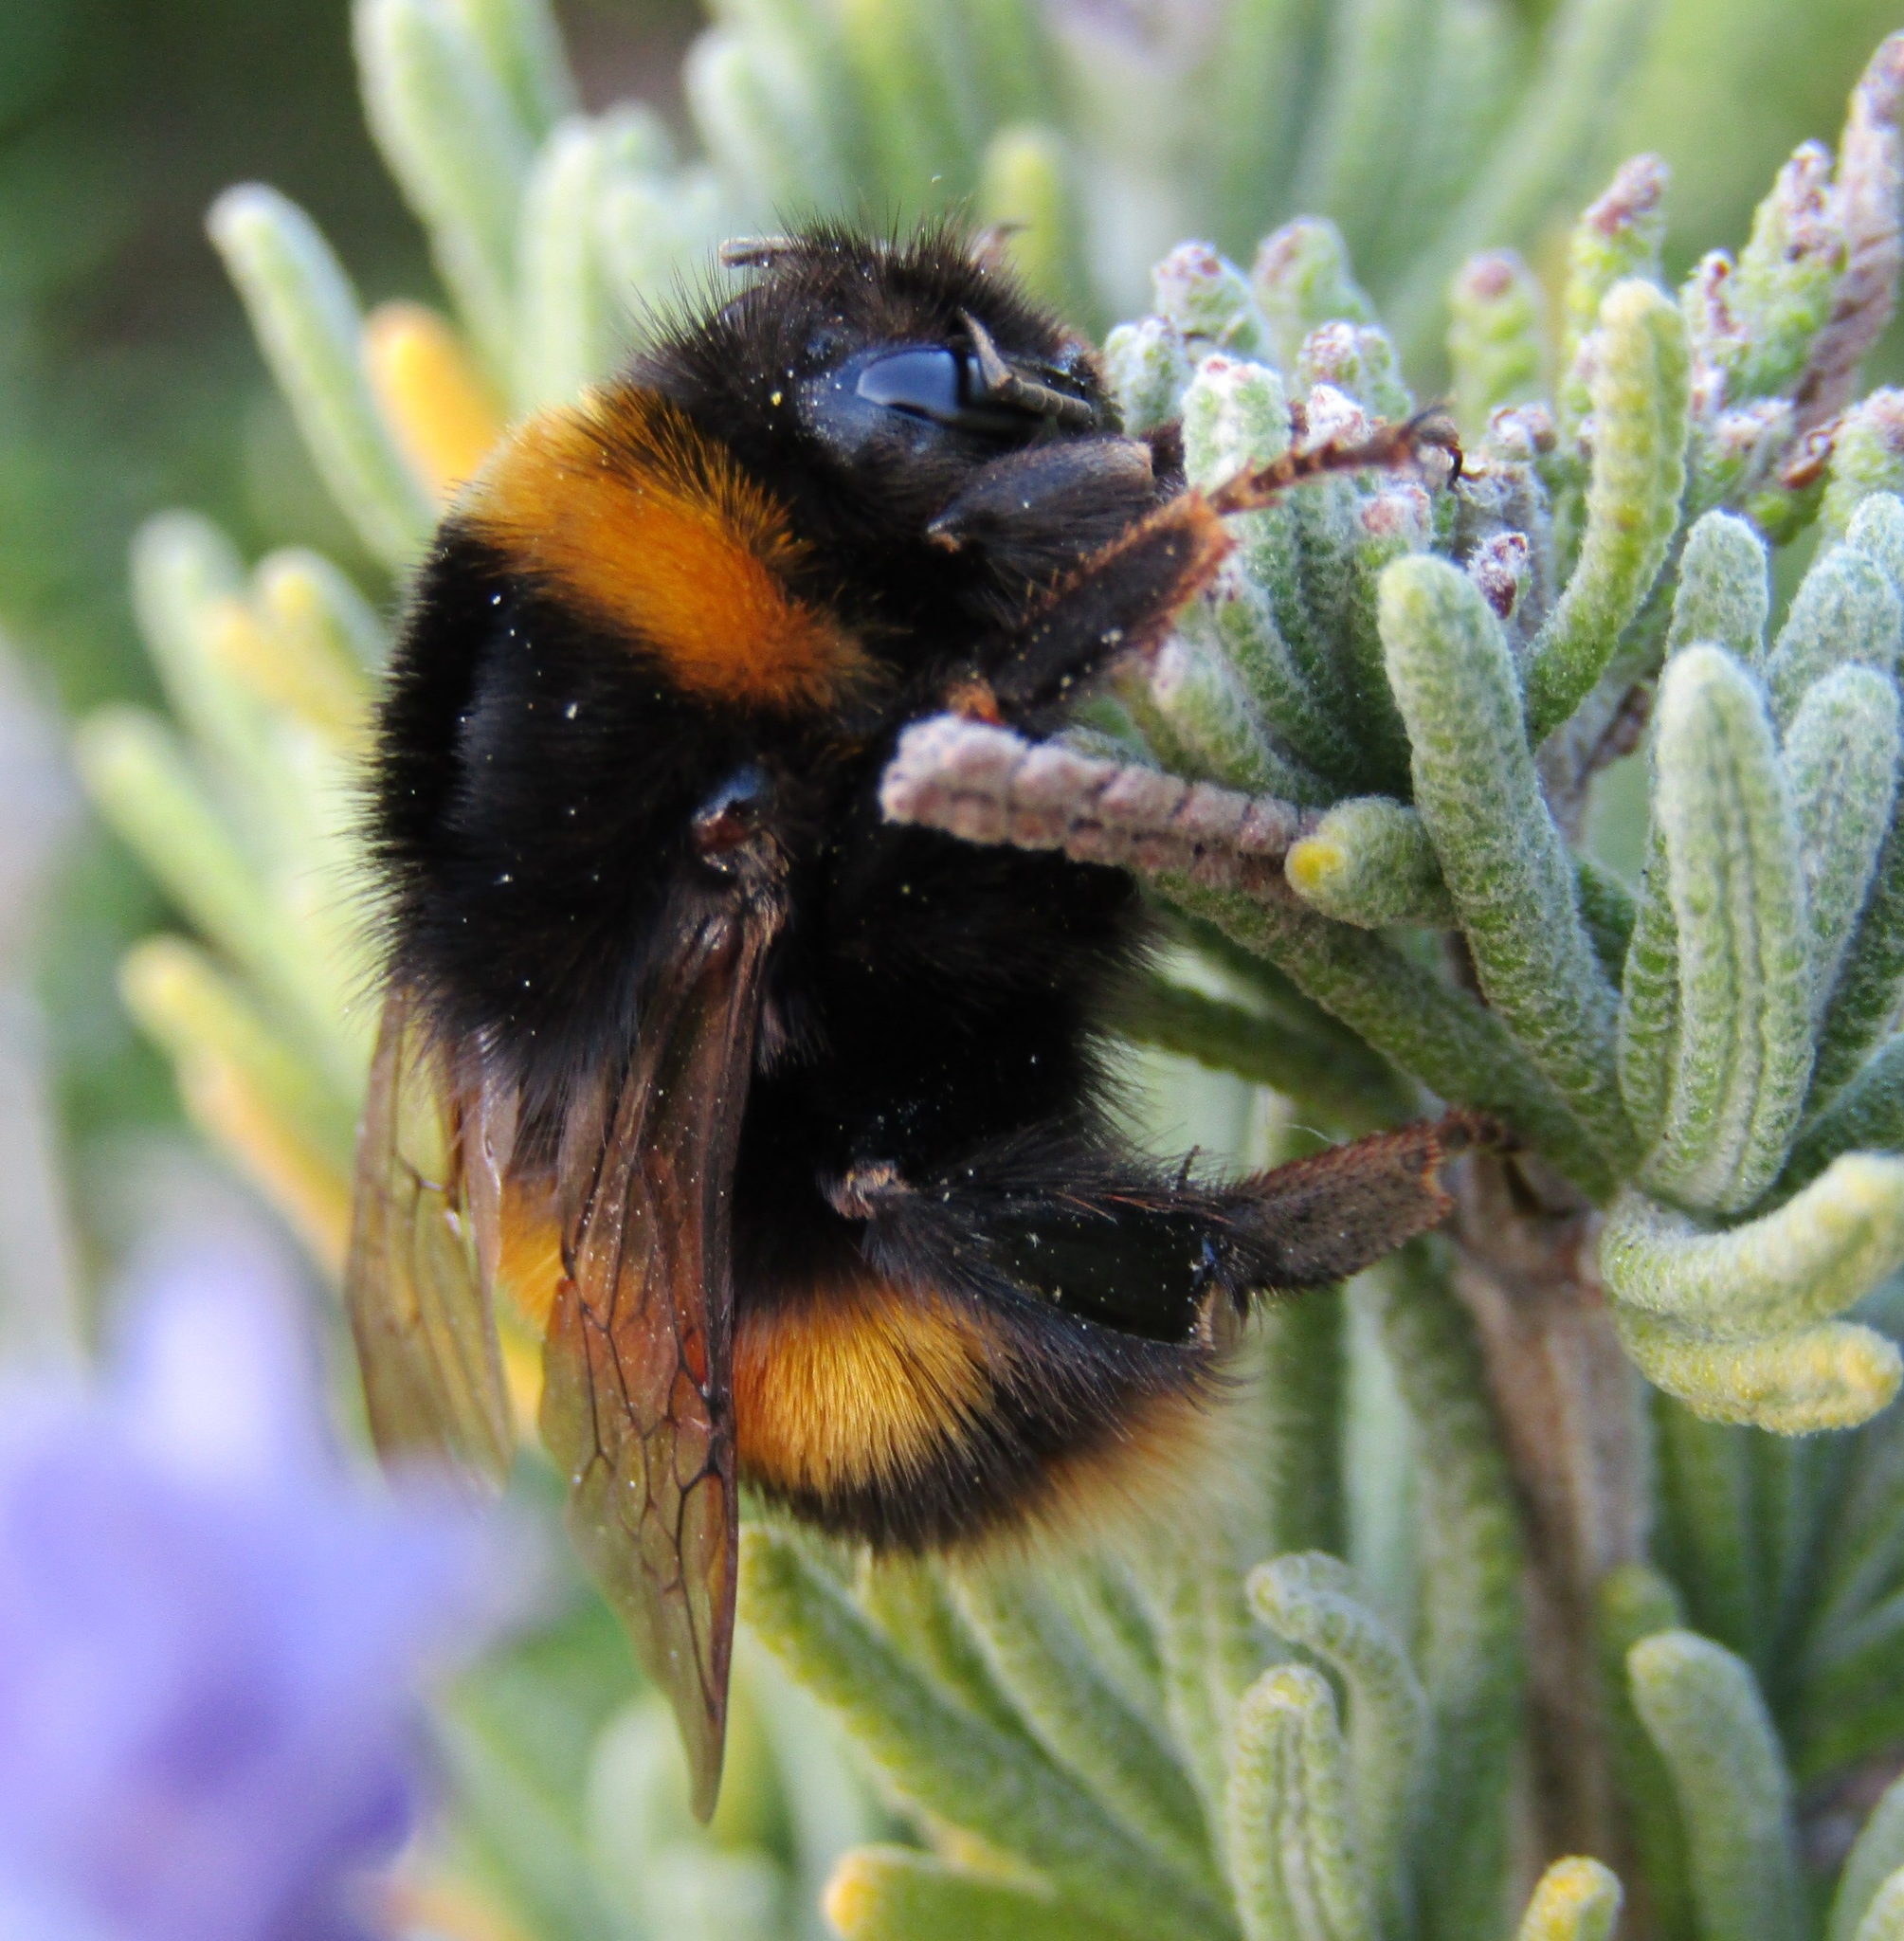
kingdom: Animalia
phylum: Arthropoda
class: Insecta
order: Hymenoptera
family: Apidae
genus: Bombus
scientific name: Bombus terrestris
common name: Buff-tailed bumblebee
